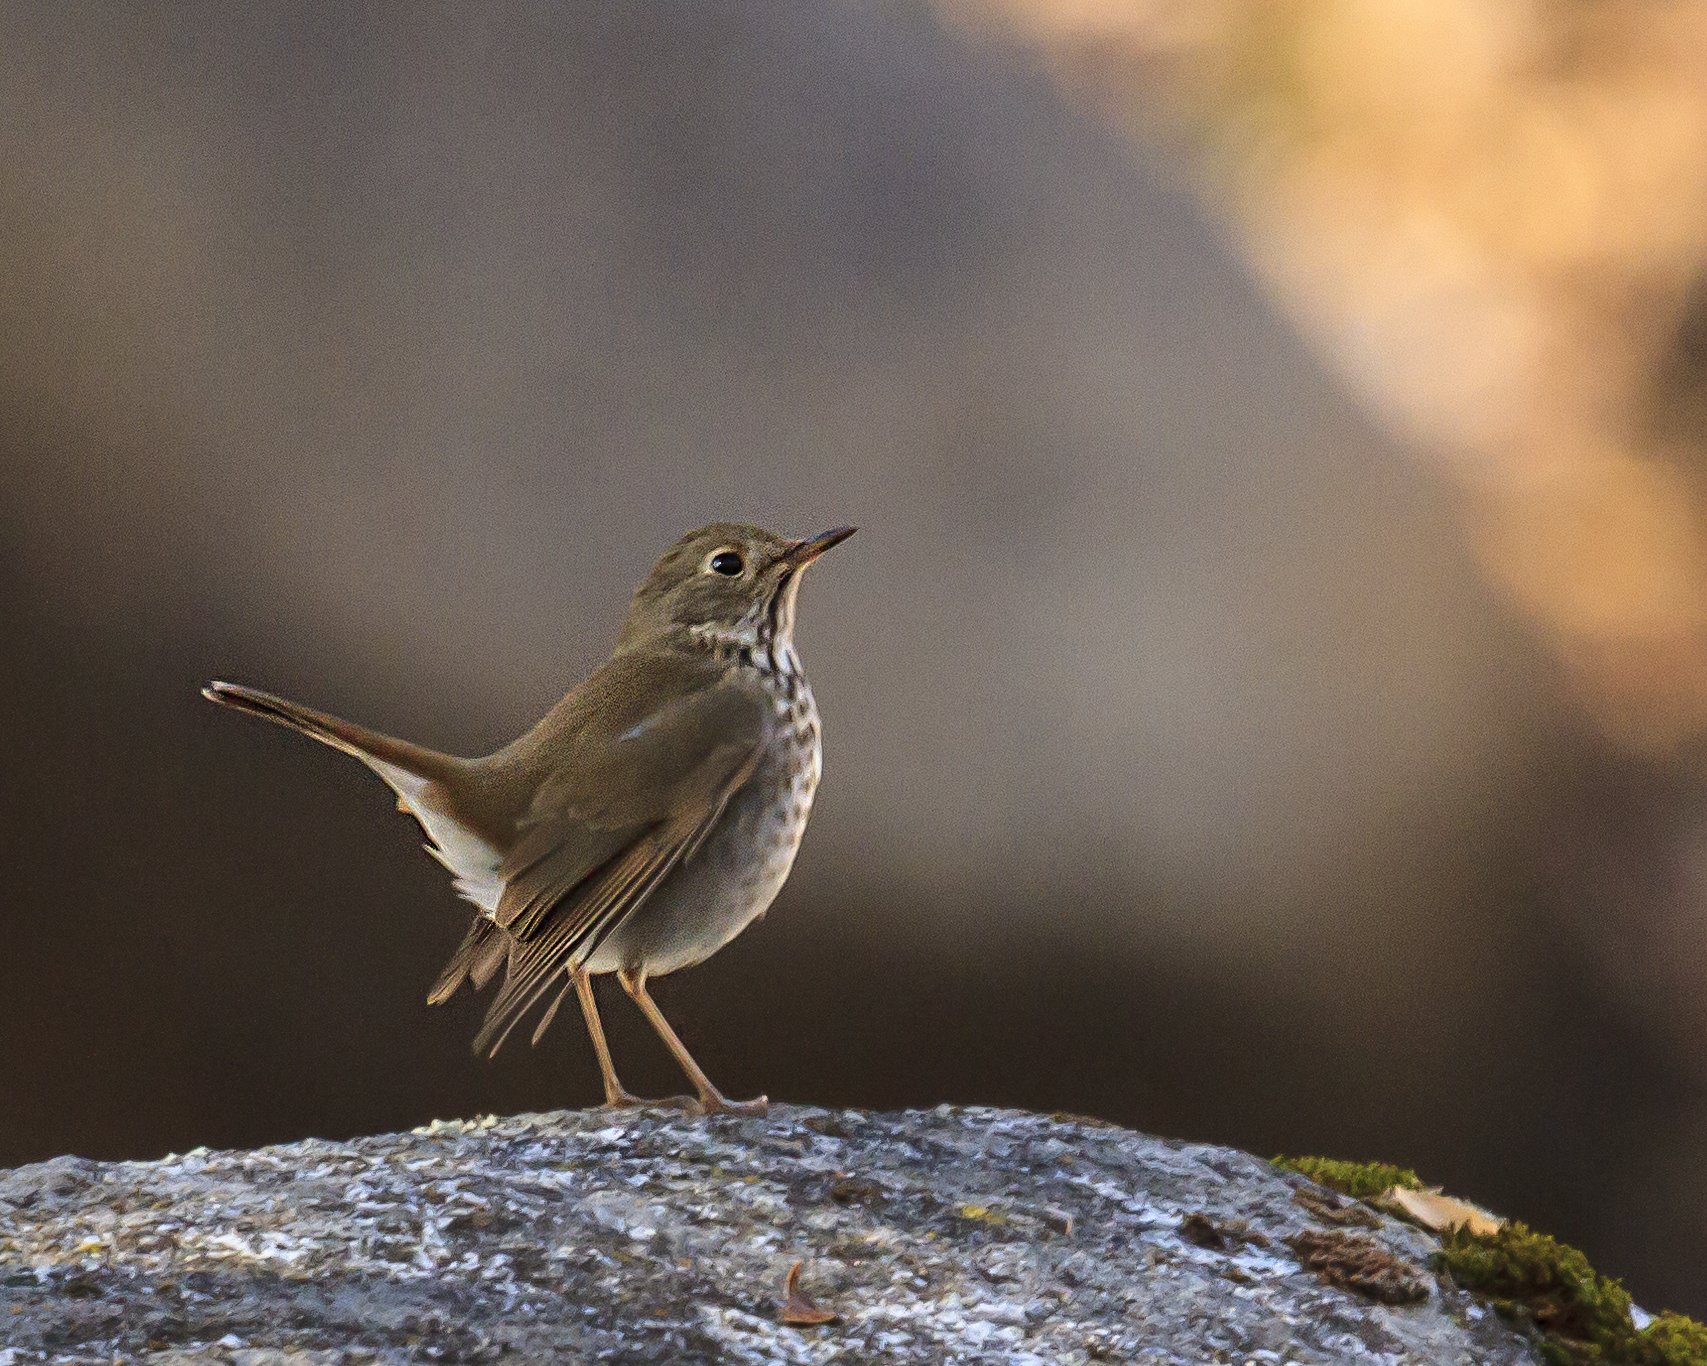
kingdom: Animalia
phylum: Chordata
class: Aves
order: Passeriformes
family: Turdidae
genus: Catharus
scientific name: Catharus guttatus
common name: Hermit thrush
